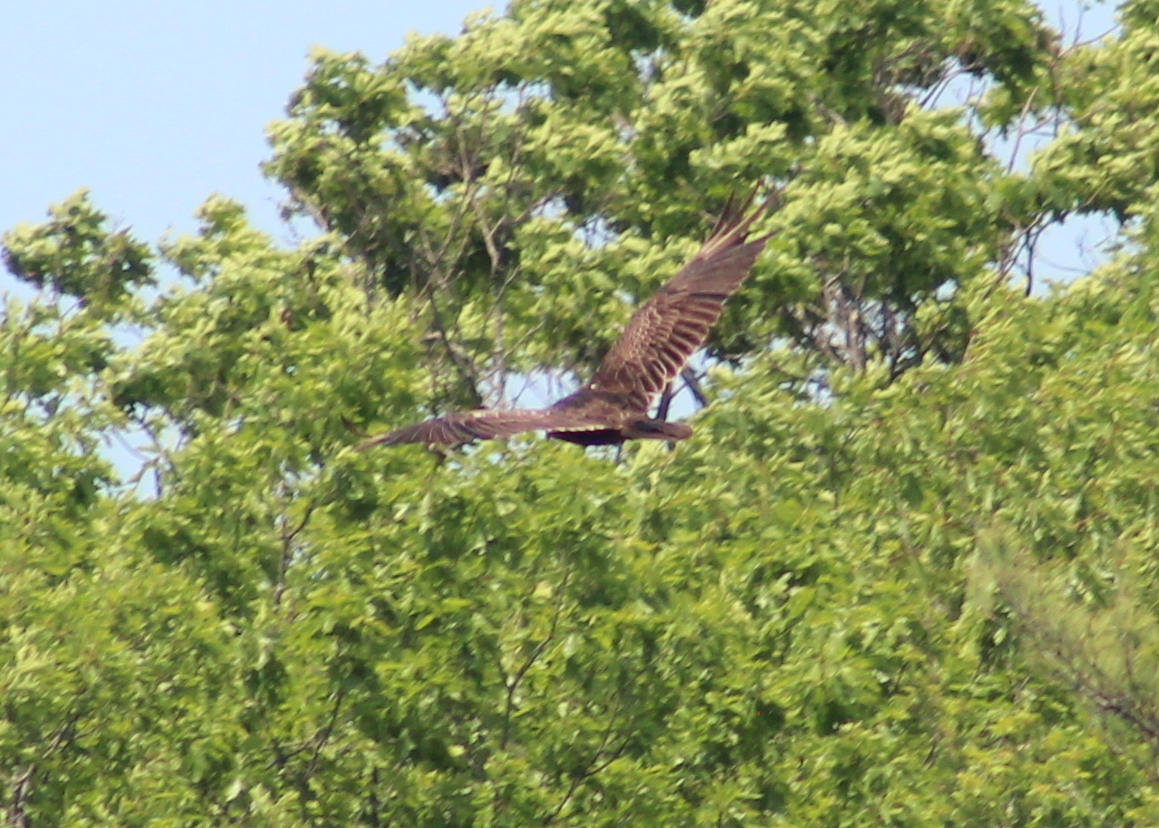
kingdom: Animalia
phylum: Chordata
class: Aves
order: Accipitriformes
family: Cathartidae
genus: Cathartes
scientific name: Cathartes aura
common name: Turkey vulture
